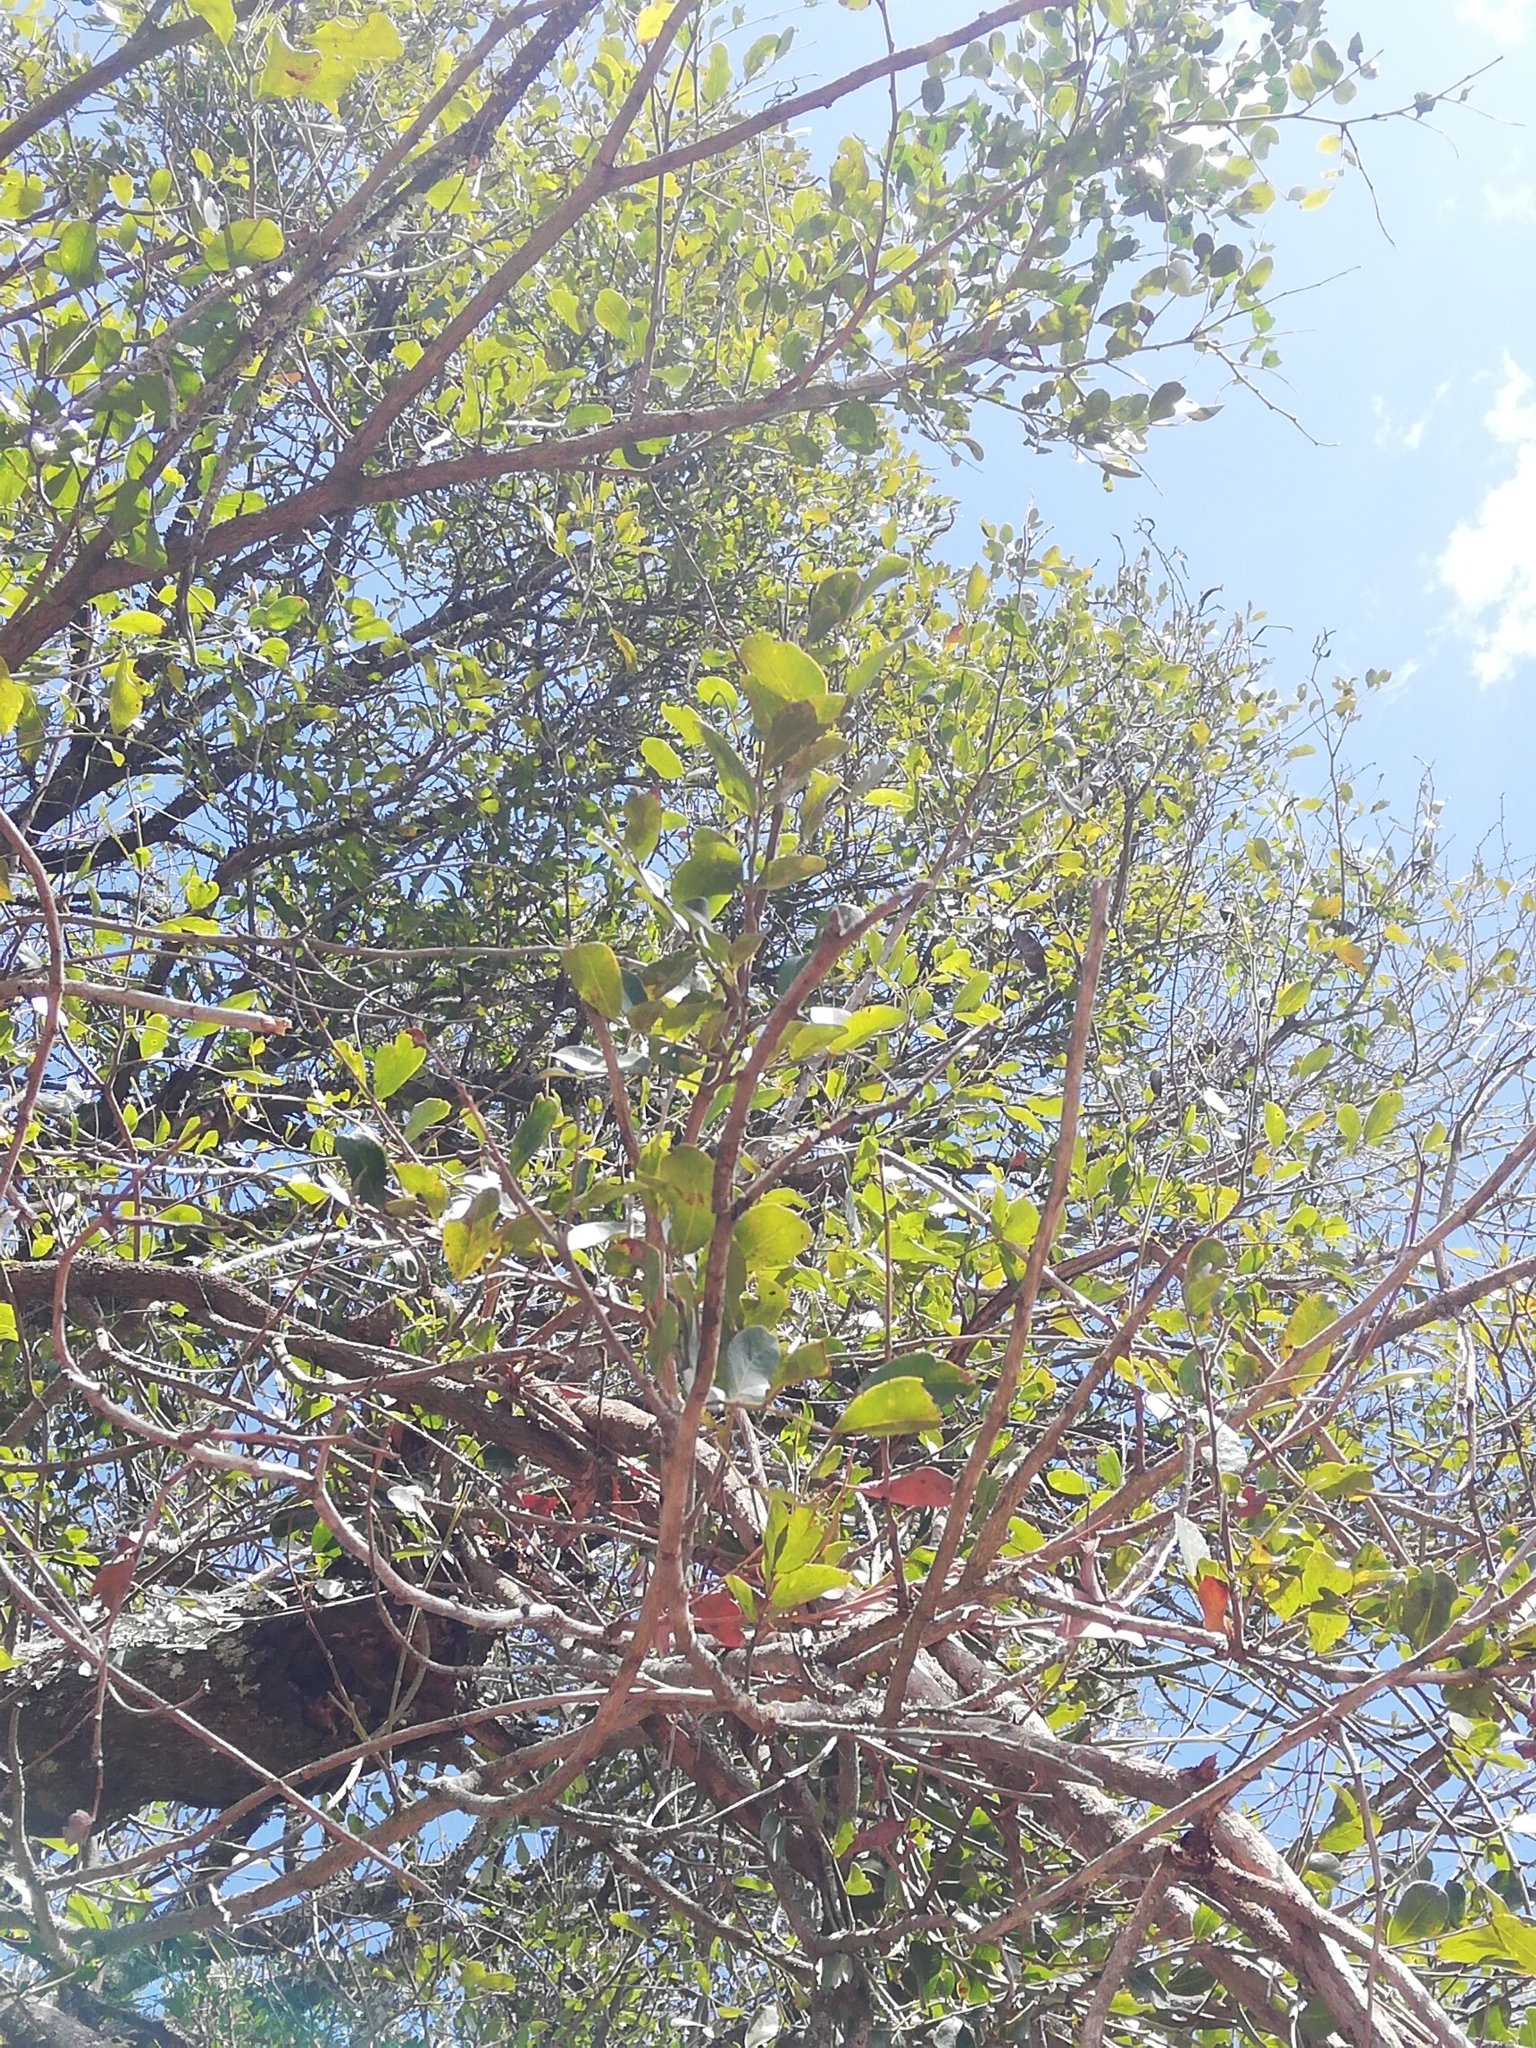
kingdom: Plantae
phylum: Tracheophyta
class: Magnoliopsida
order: Fabales
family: Fabaceae
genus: Schotia
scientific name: Schotia latifolia
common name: Bush boer-bean
